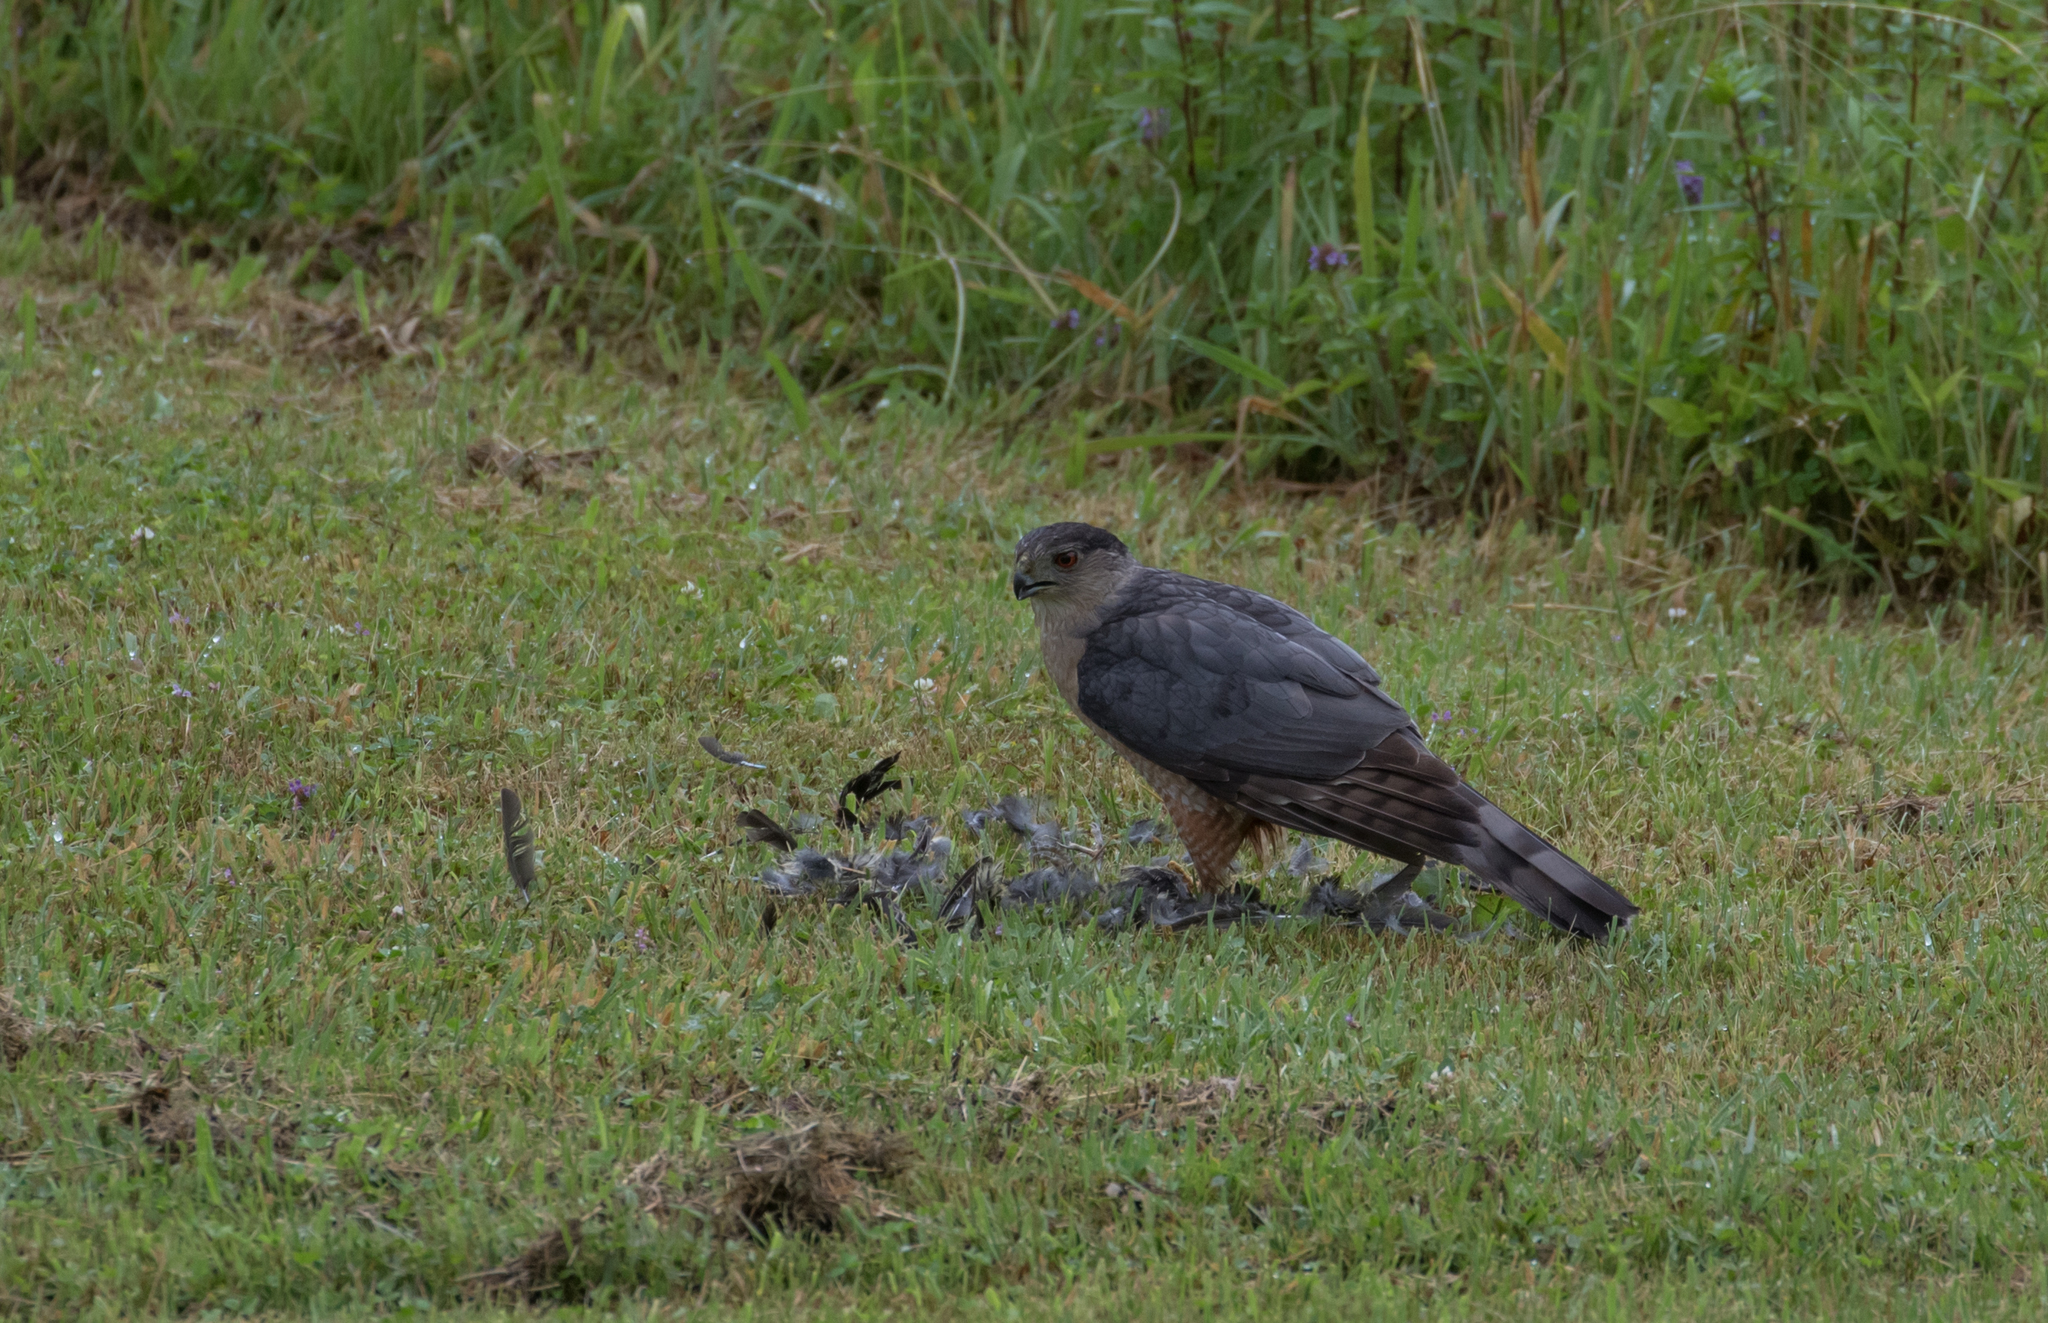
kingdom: Animalia
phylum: Chordata
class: Aves
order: Accipitriformes
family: Accipitridae
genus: Accipiter
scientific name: Accipiter cooperii
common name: Cooper's hawk
